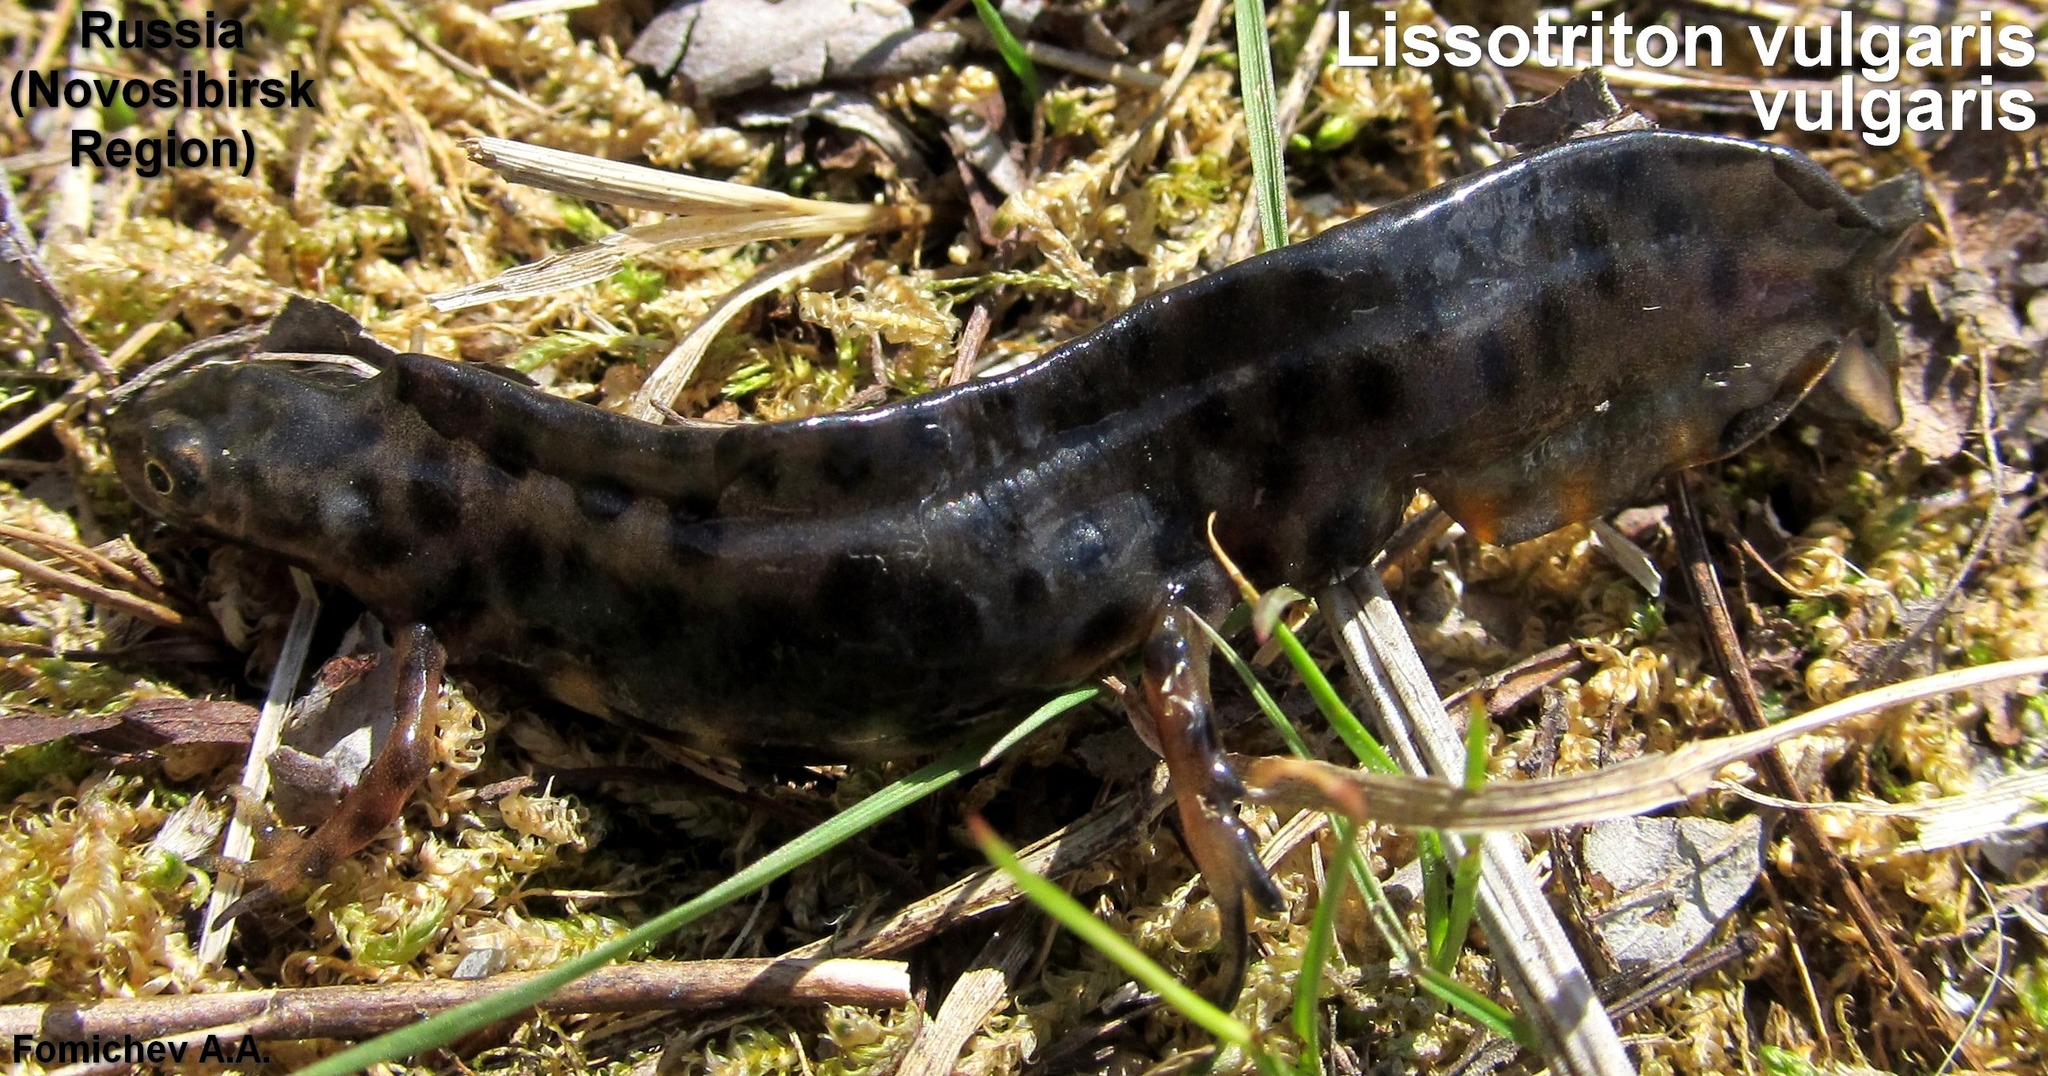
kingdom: Animalia
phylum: Chordata
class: Amphibia
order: Caudata
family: Salamandridae
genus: Lissotriton
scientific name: Lissotriton vulgaris
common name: Smooth newt
